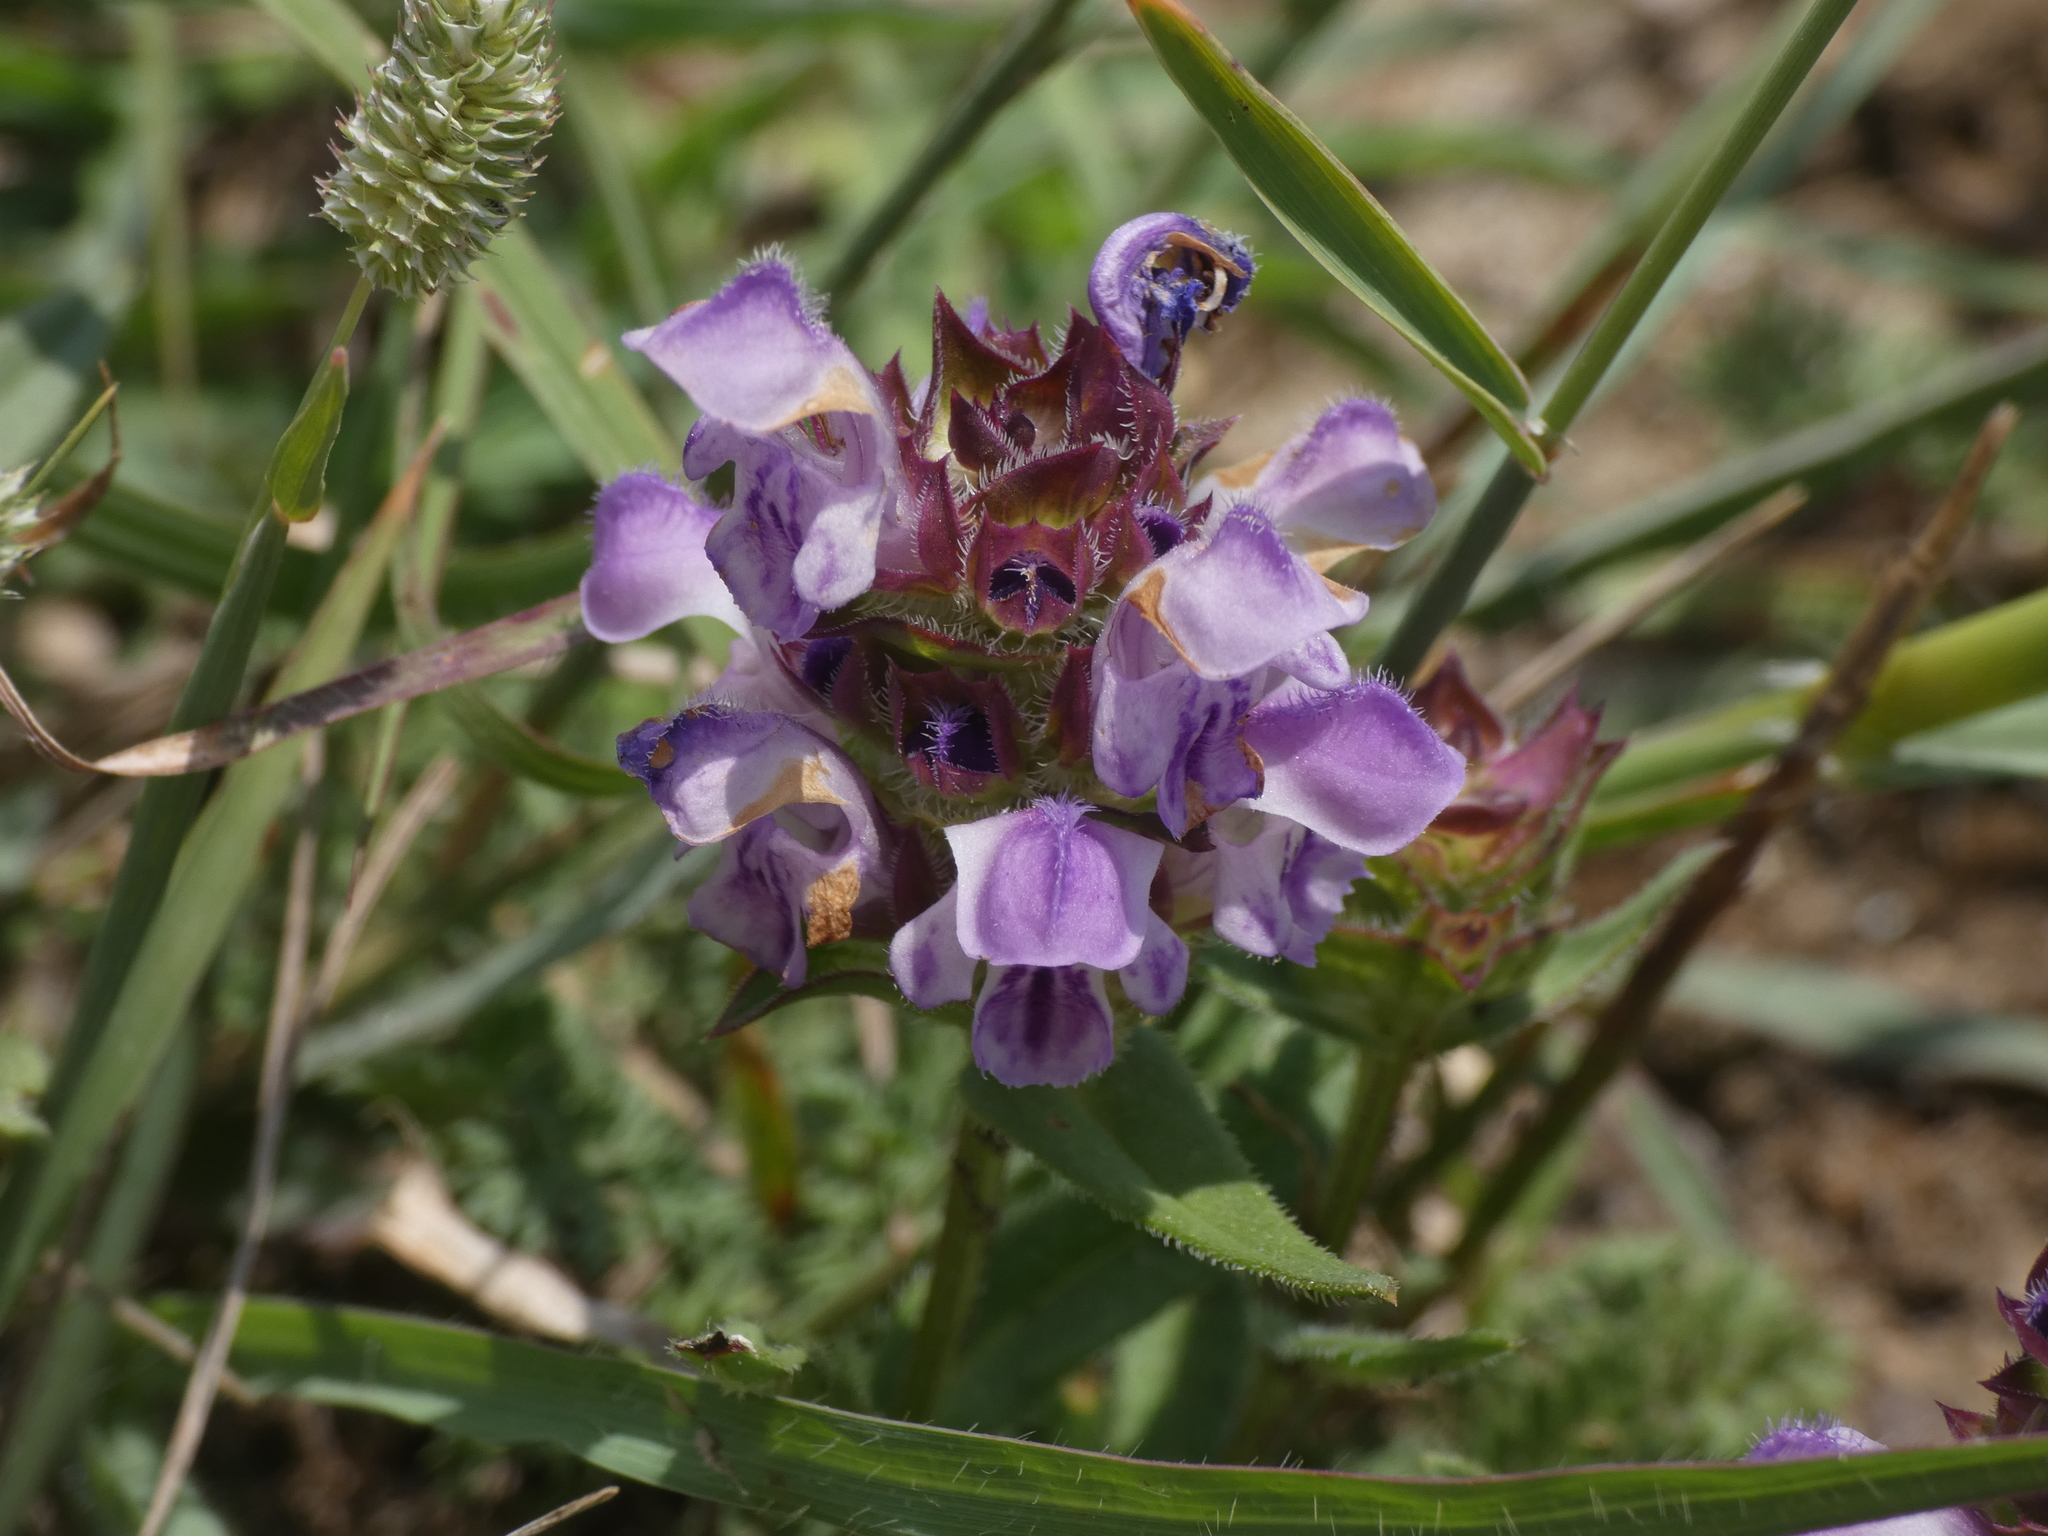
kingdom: Plantae
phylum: Tracheophyta
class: Magnoliopsida
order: Lamiales
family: Lamiaceae
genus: Prunella
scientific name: Prunella hyssopifolia
